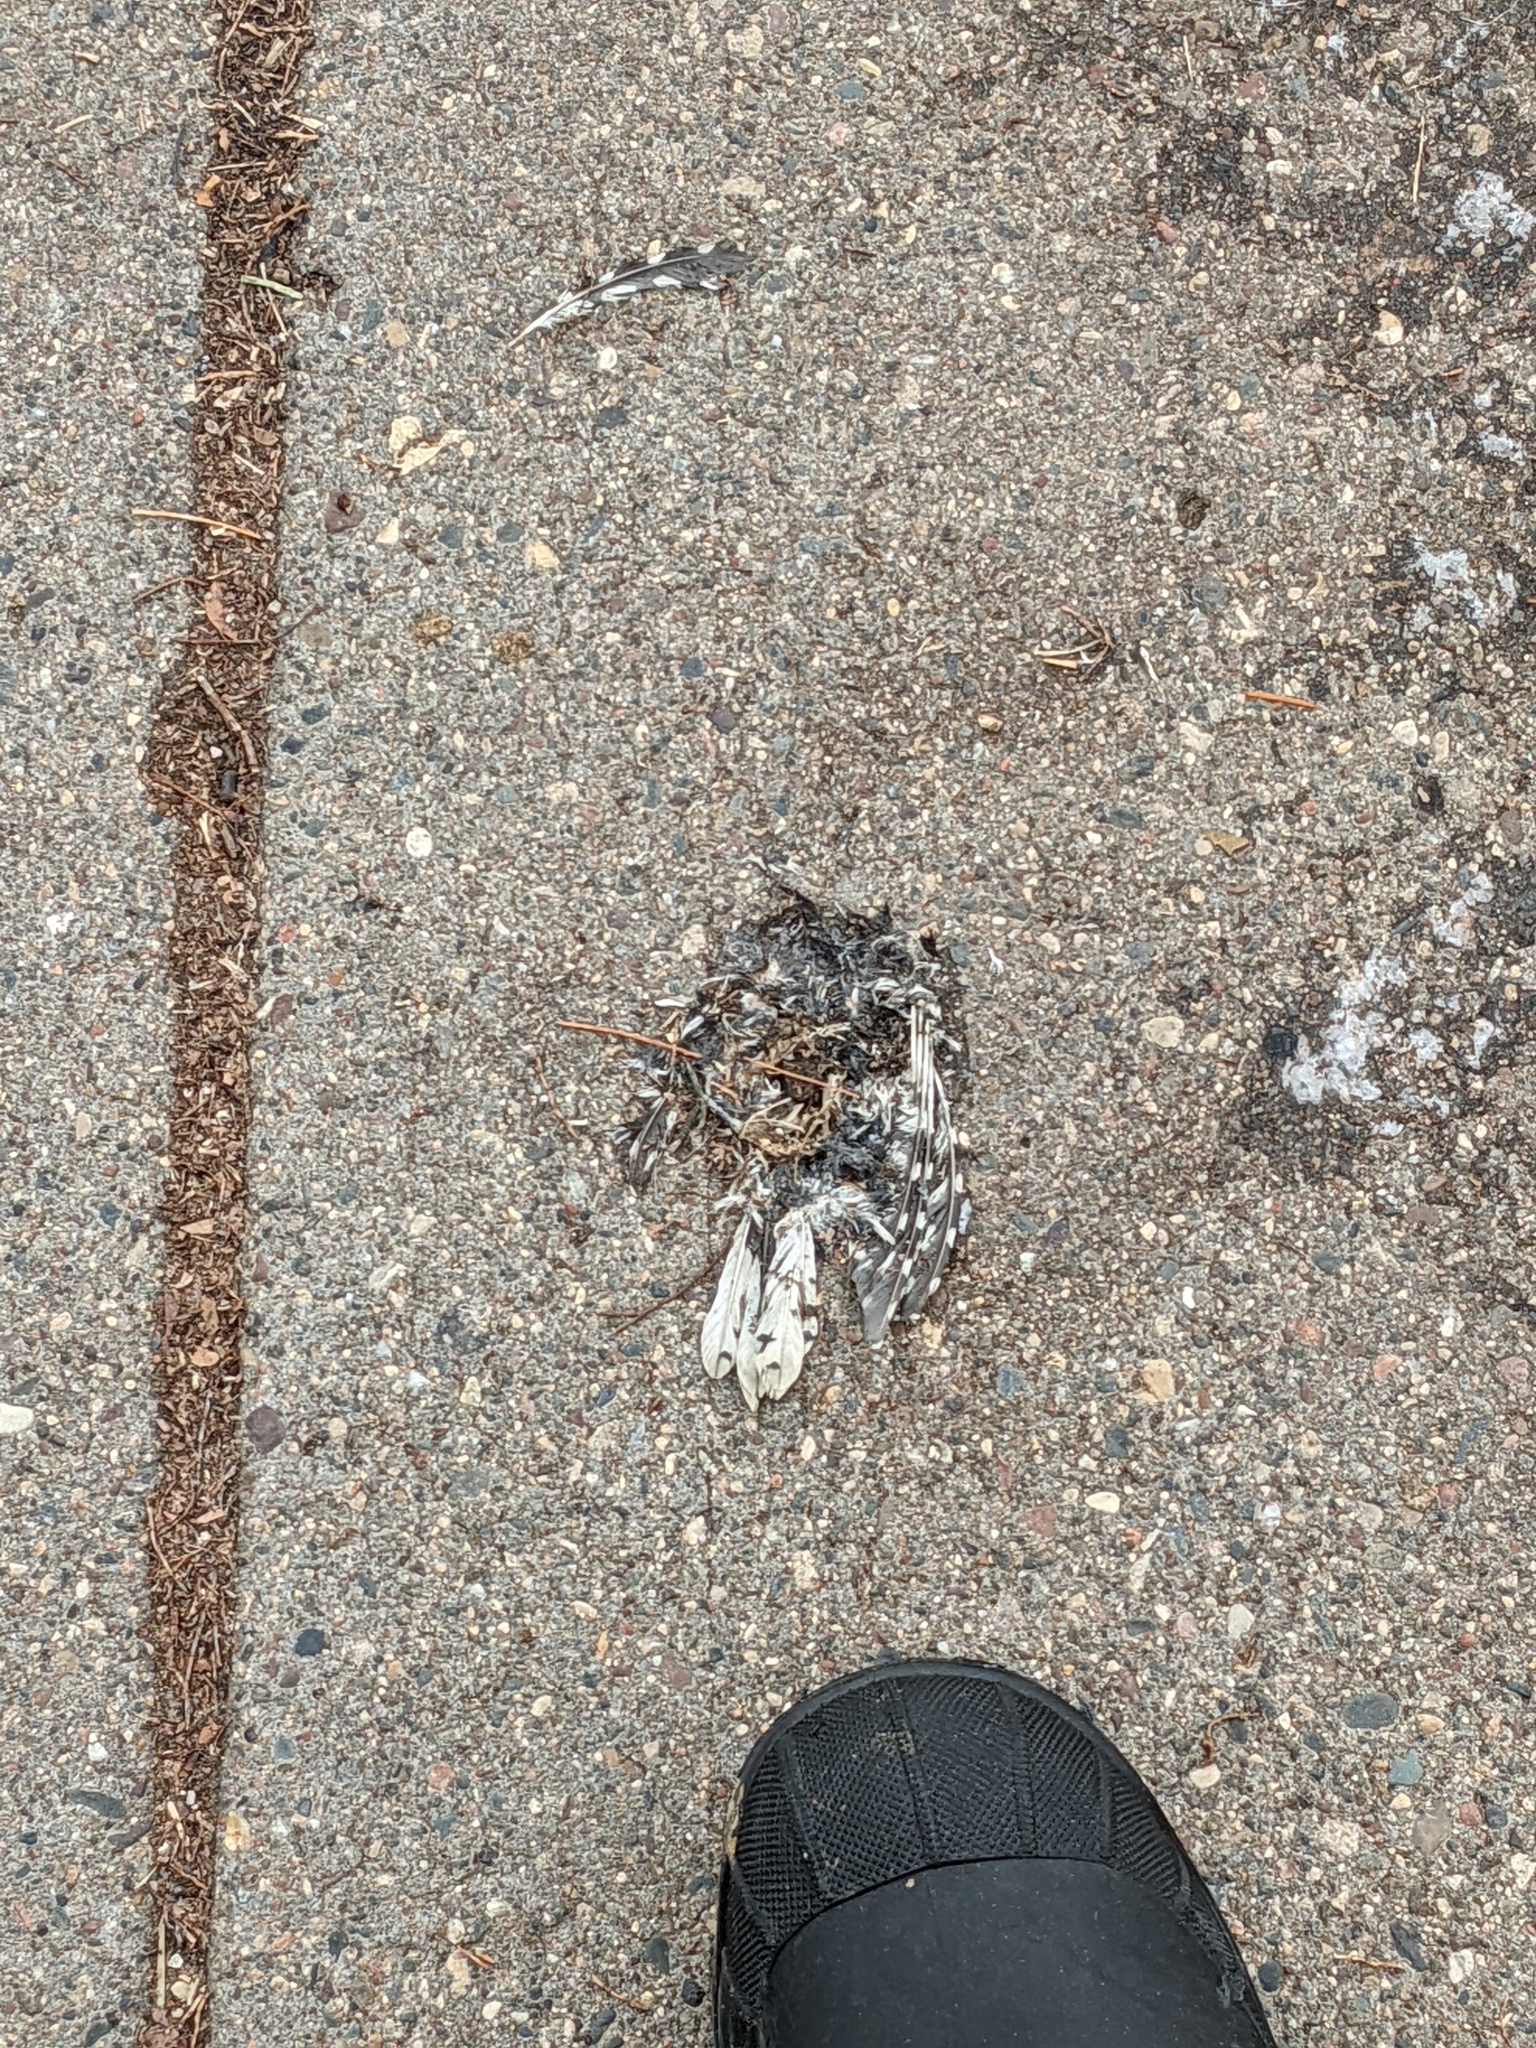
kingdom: Animalia
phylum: Chordata
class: Aves
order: Piciformes
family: Picidae
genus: Dryobates
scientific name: Dryobates pubescens
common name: Downy woodpecker
